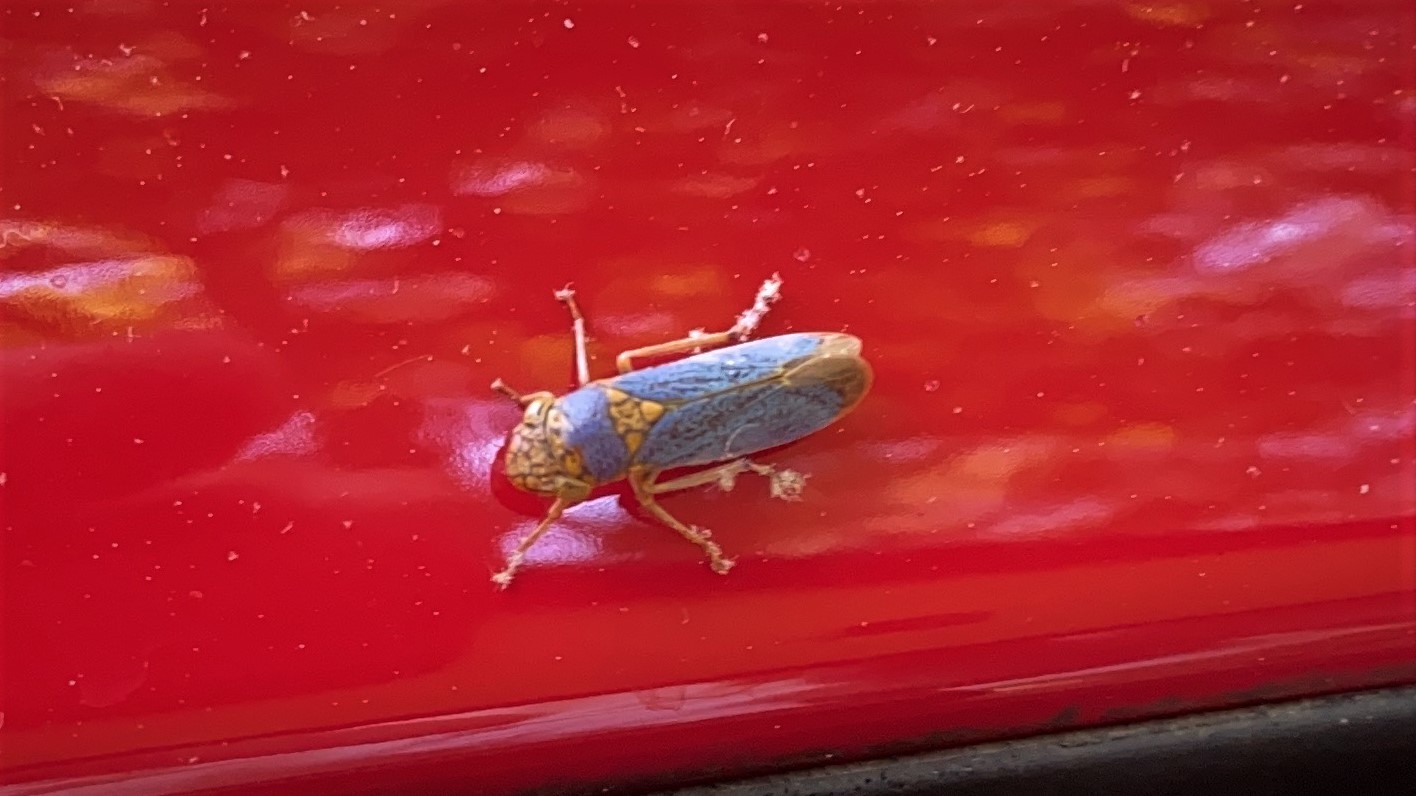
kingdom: Animalia
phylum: Arthropoda
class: Insecta
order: Hemiptera
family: Cicadellidae
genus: Oncometopia
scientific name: Oncometopia orbona
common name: Broad-headed sharpshooter
